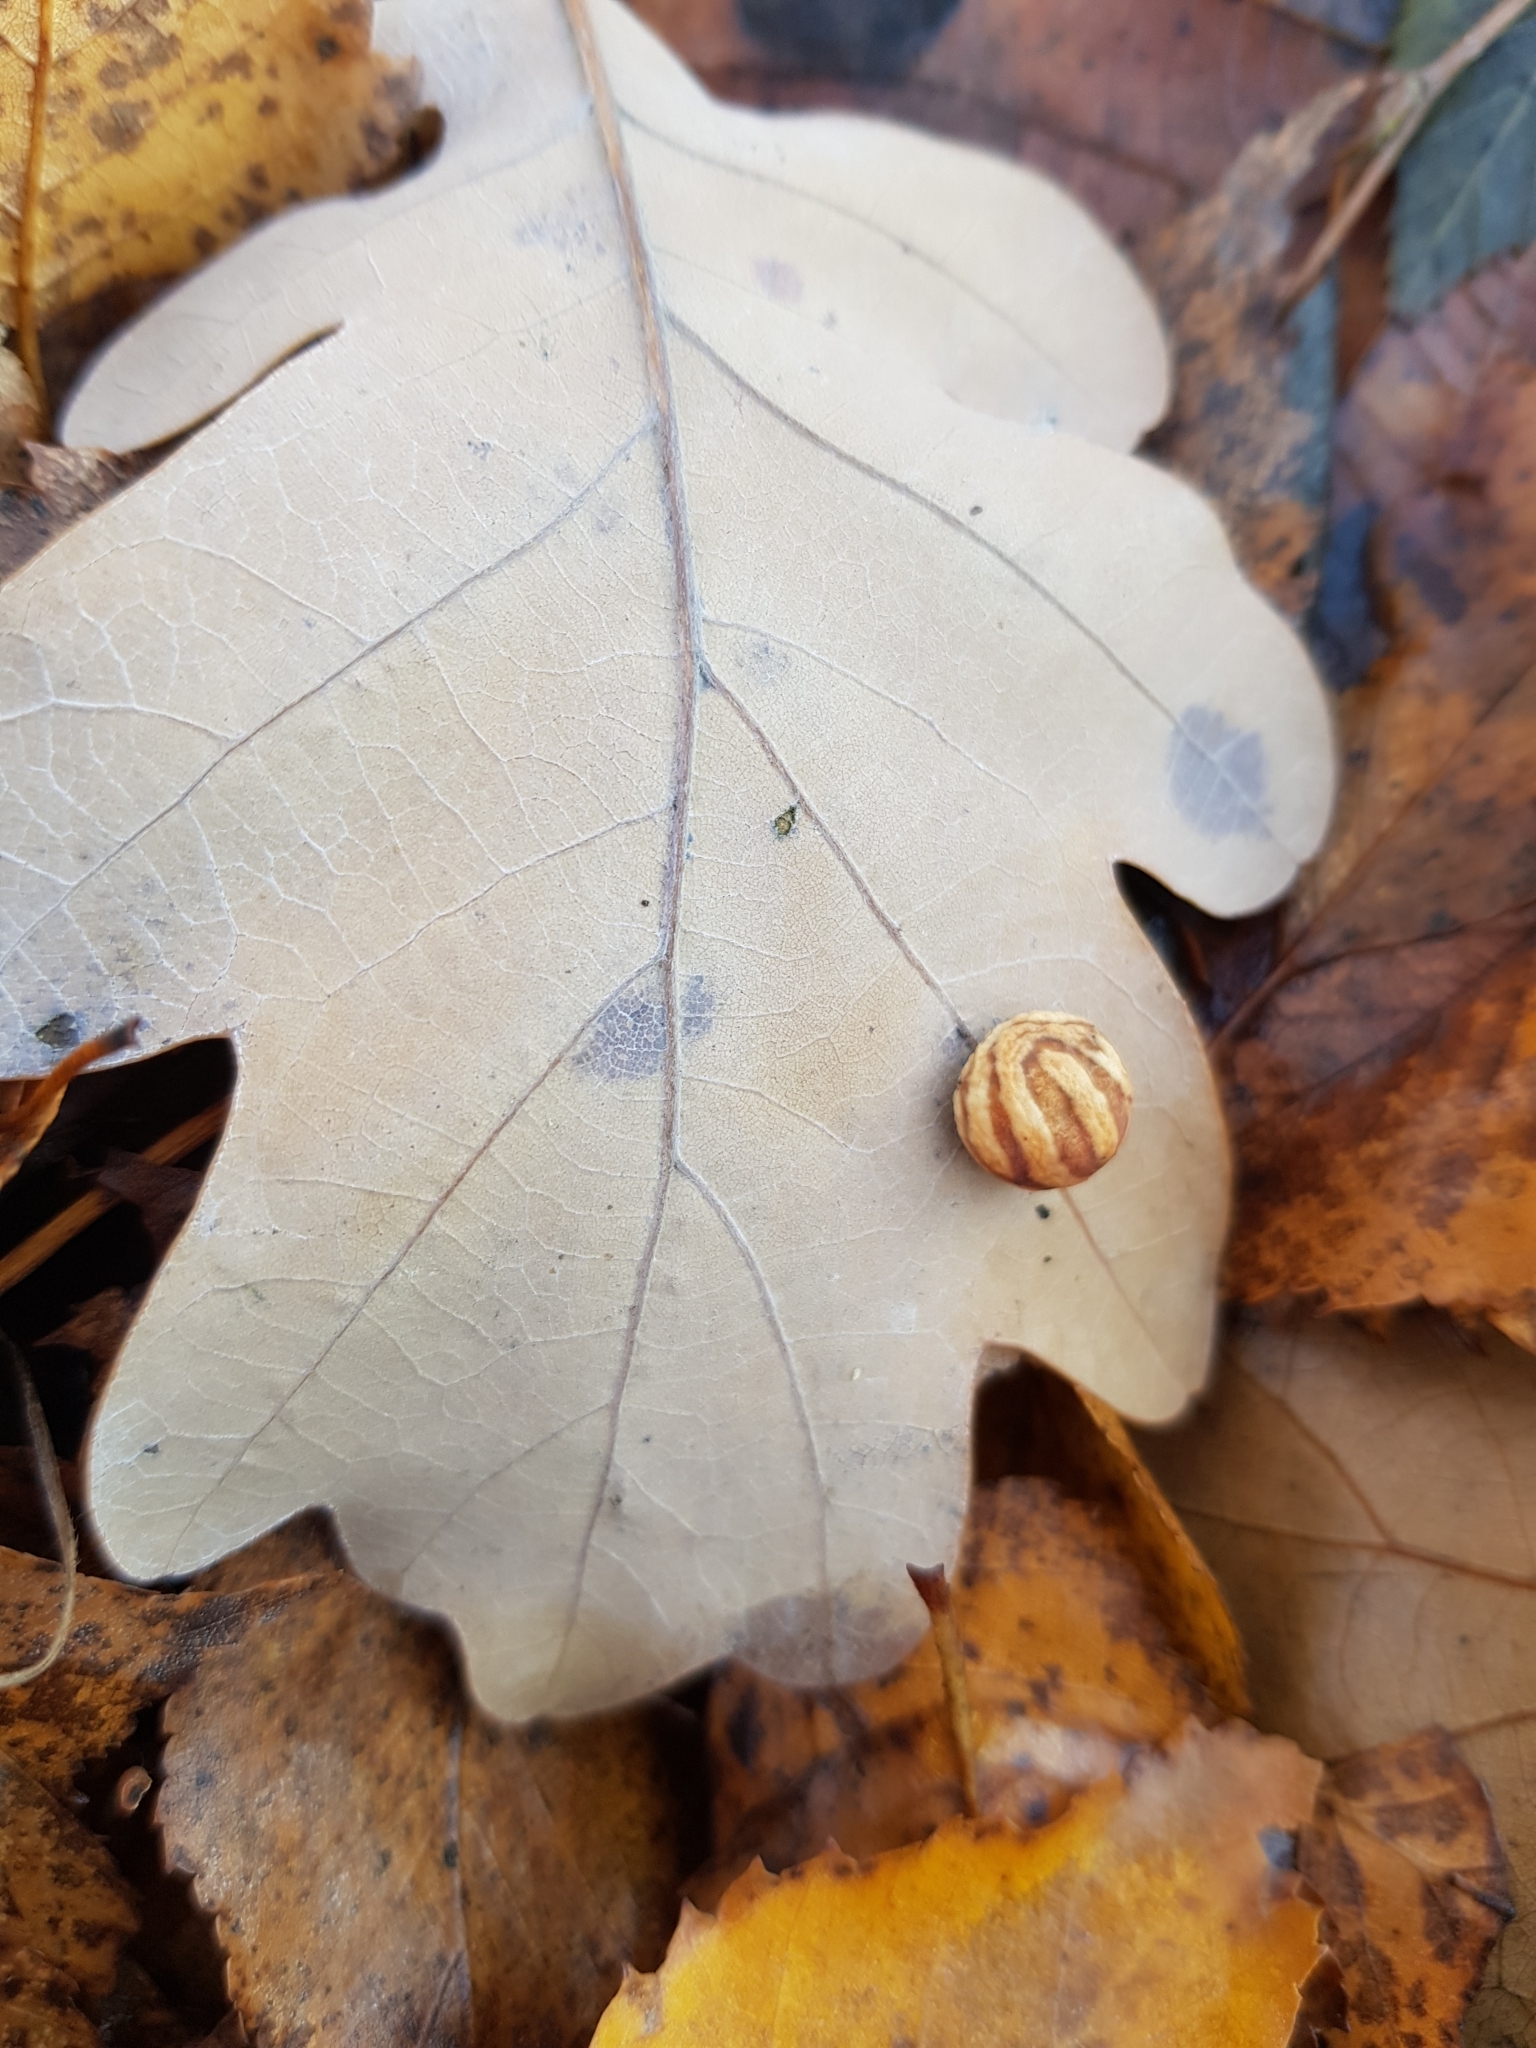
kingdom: Animalia
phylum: Arthropoda
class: Insecta
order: Hymenoptera
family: Cynipidae
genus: Cynips
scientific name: Cynips longiventris
